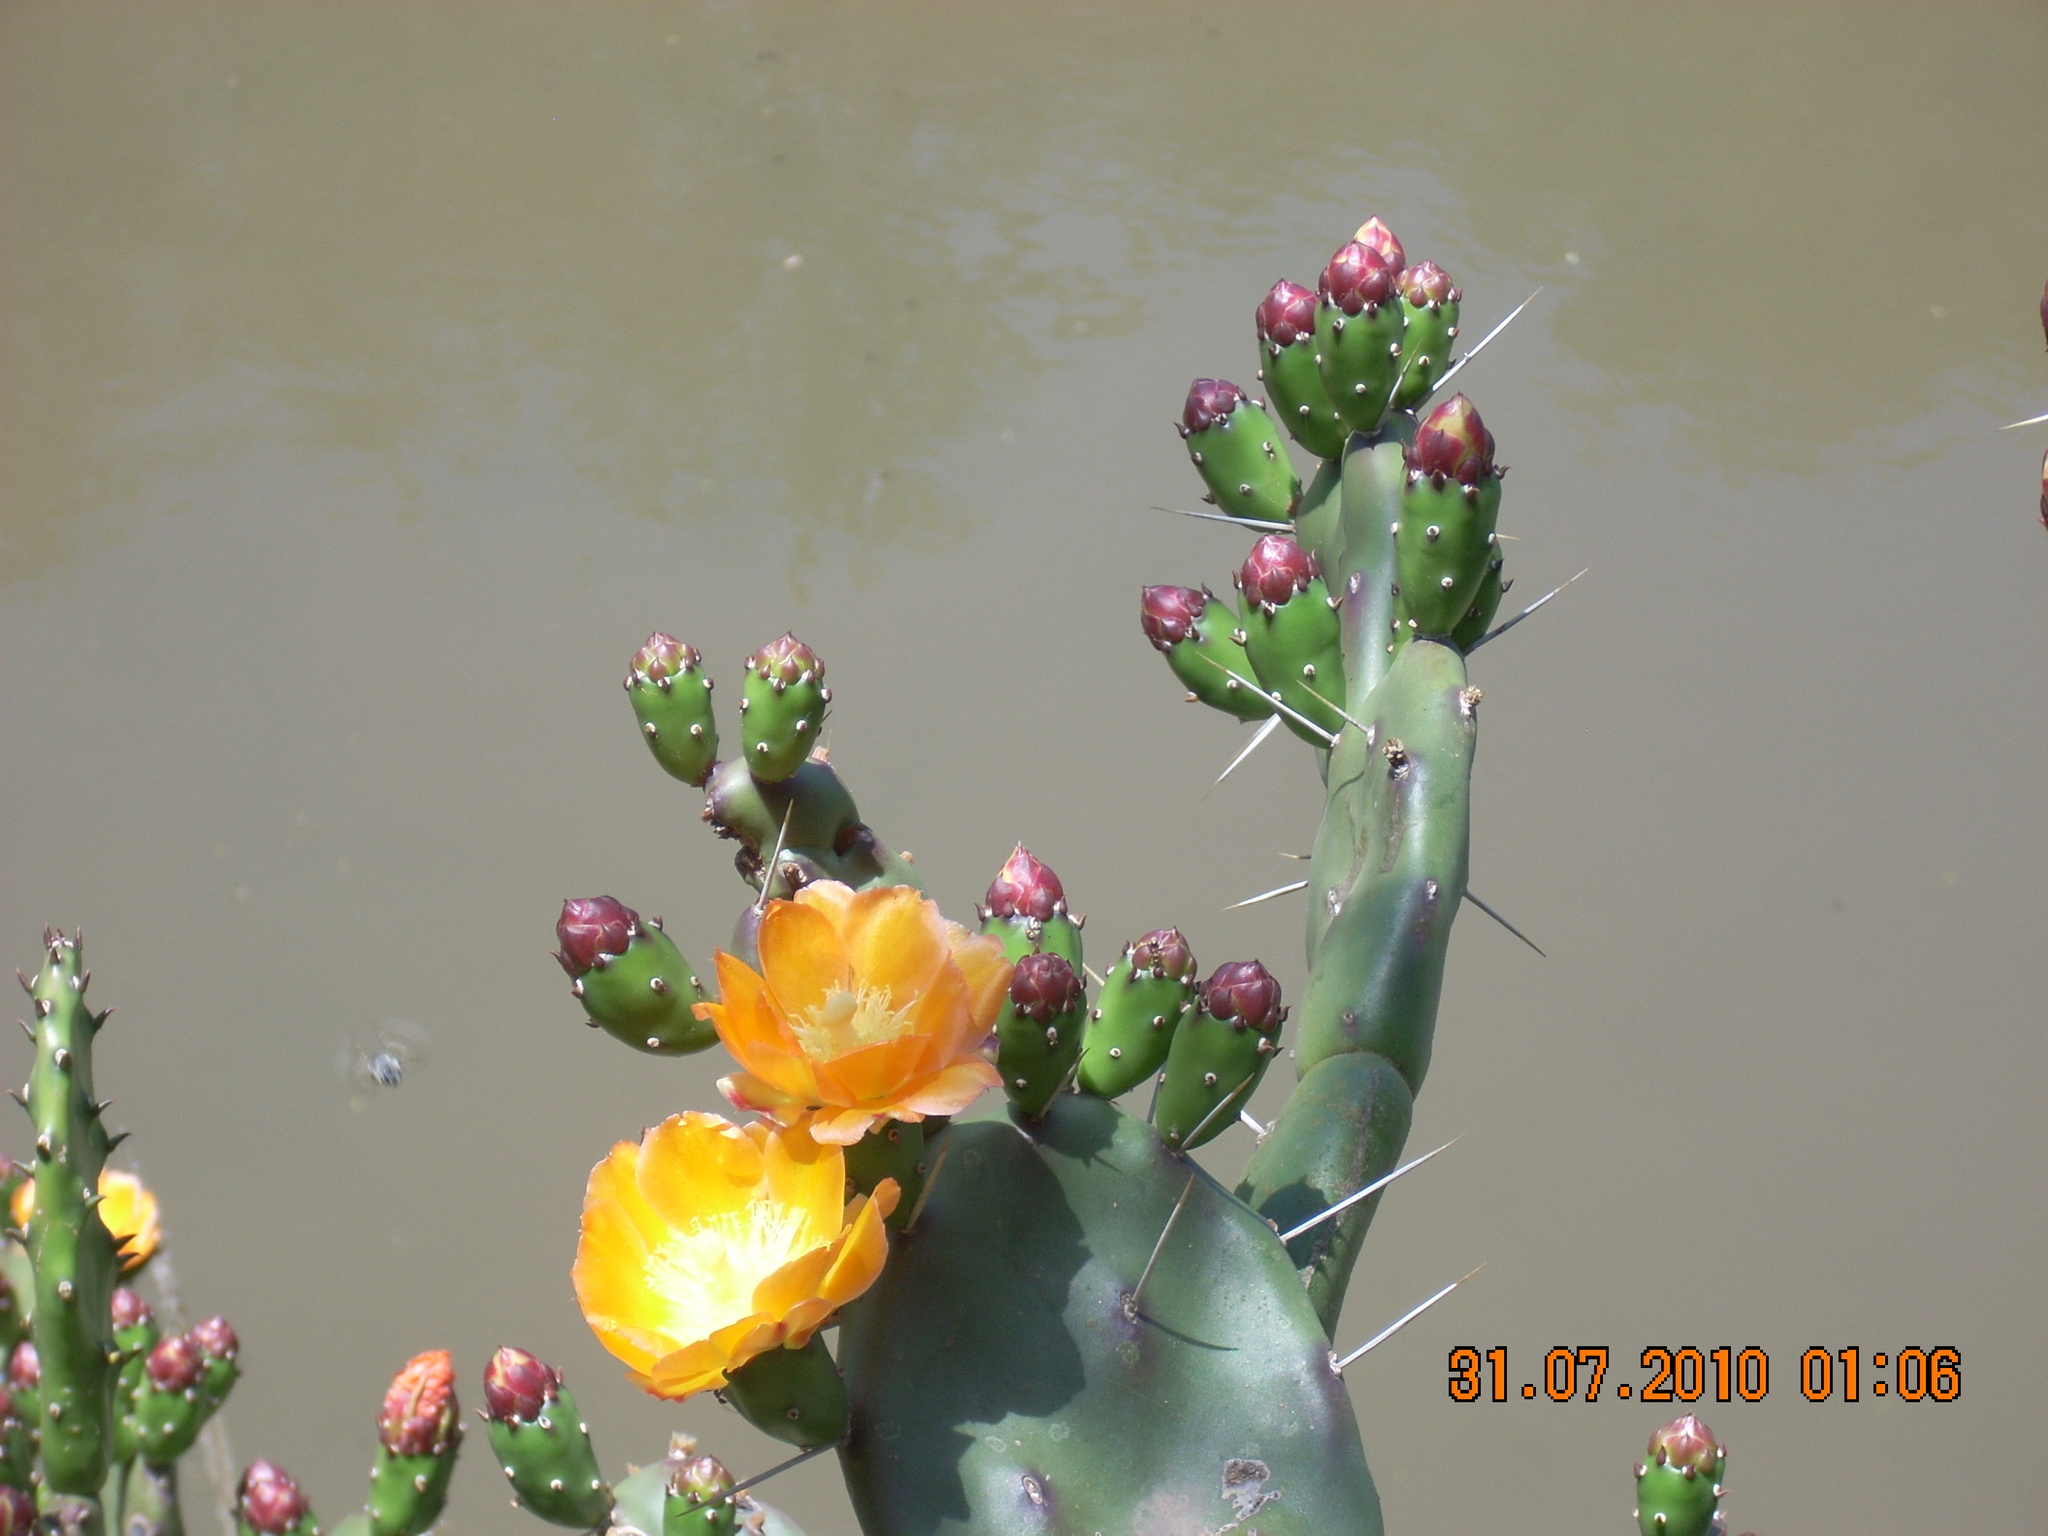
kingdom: Plantae
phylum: Tracheophyta
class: Magnoliopsida
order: Caryophyllales
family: Cactaceae
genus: Opuntia
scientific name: Opuntia elata
